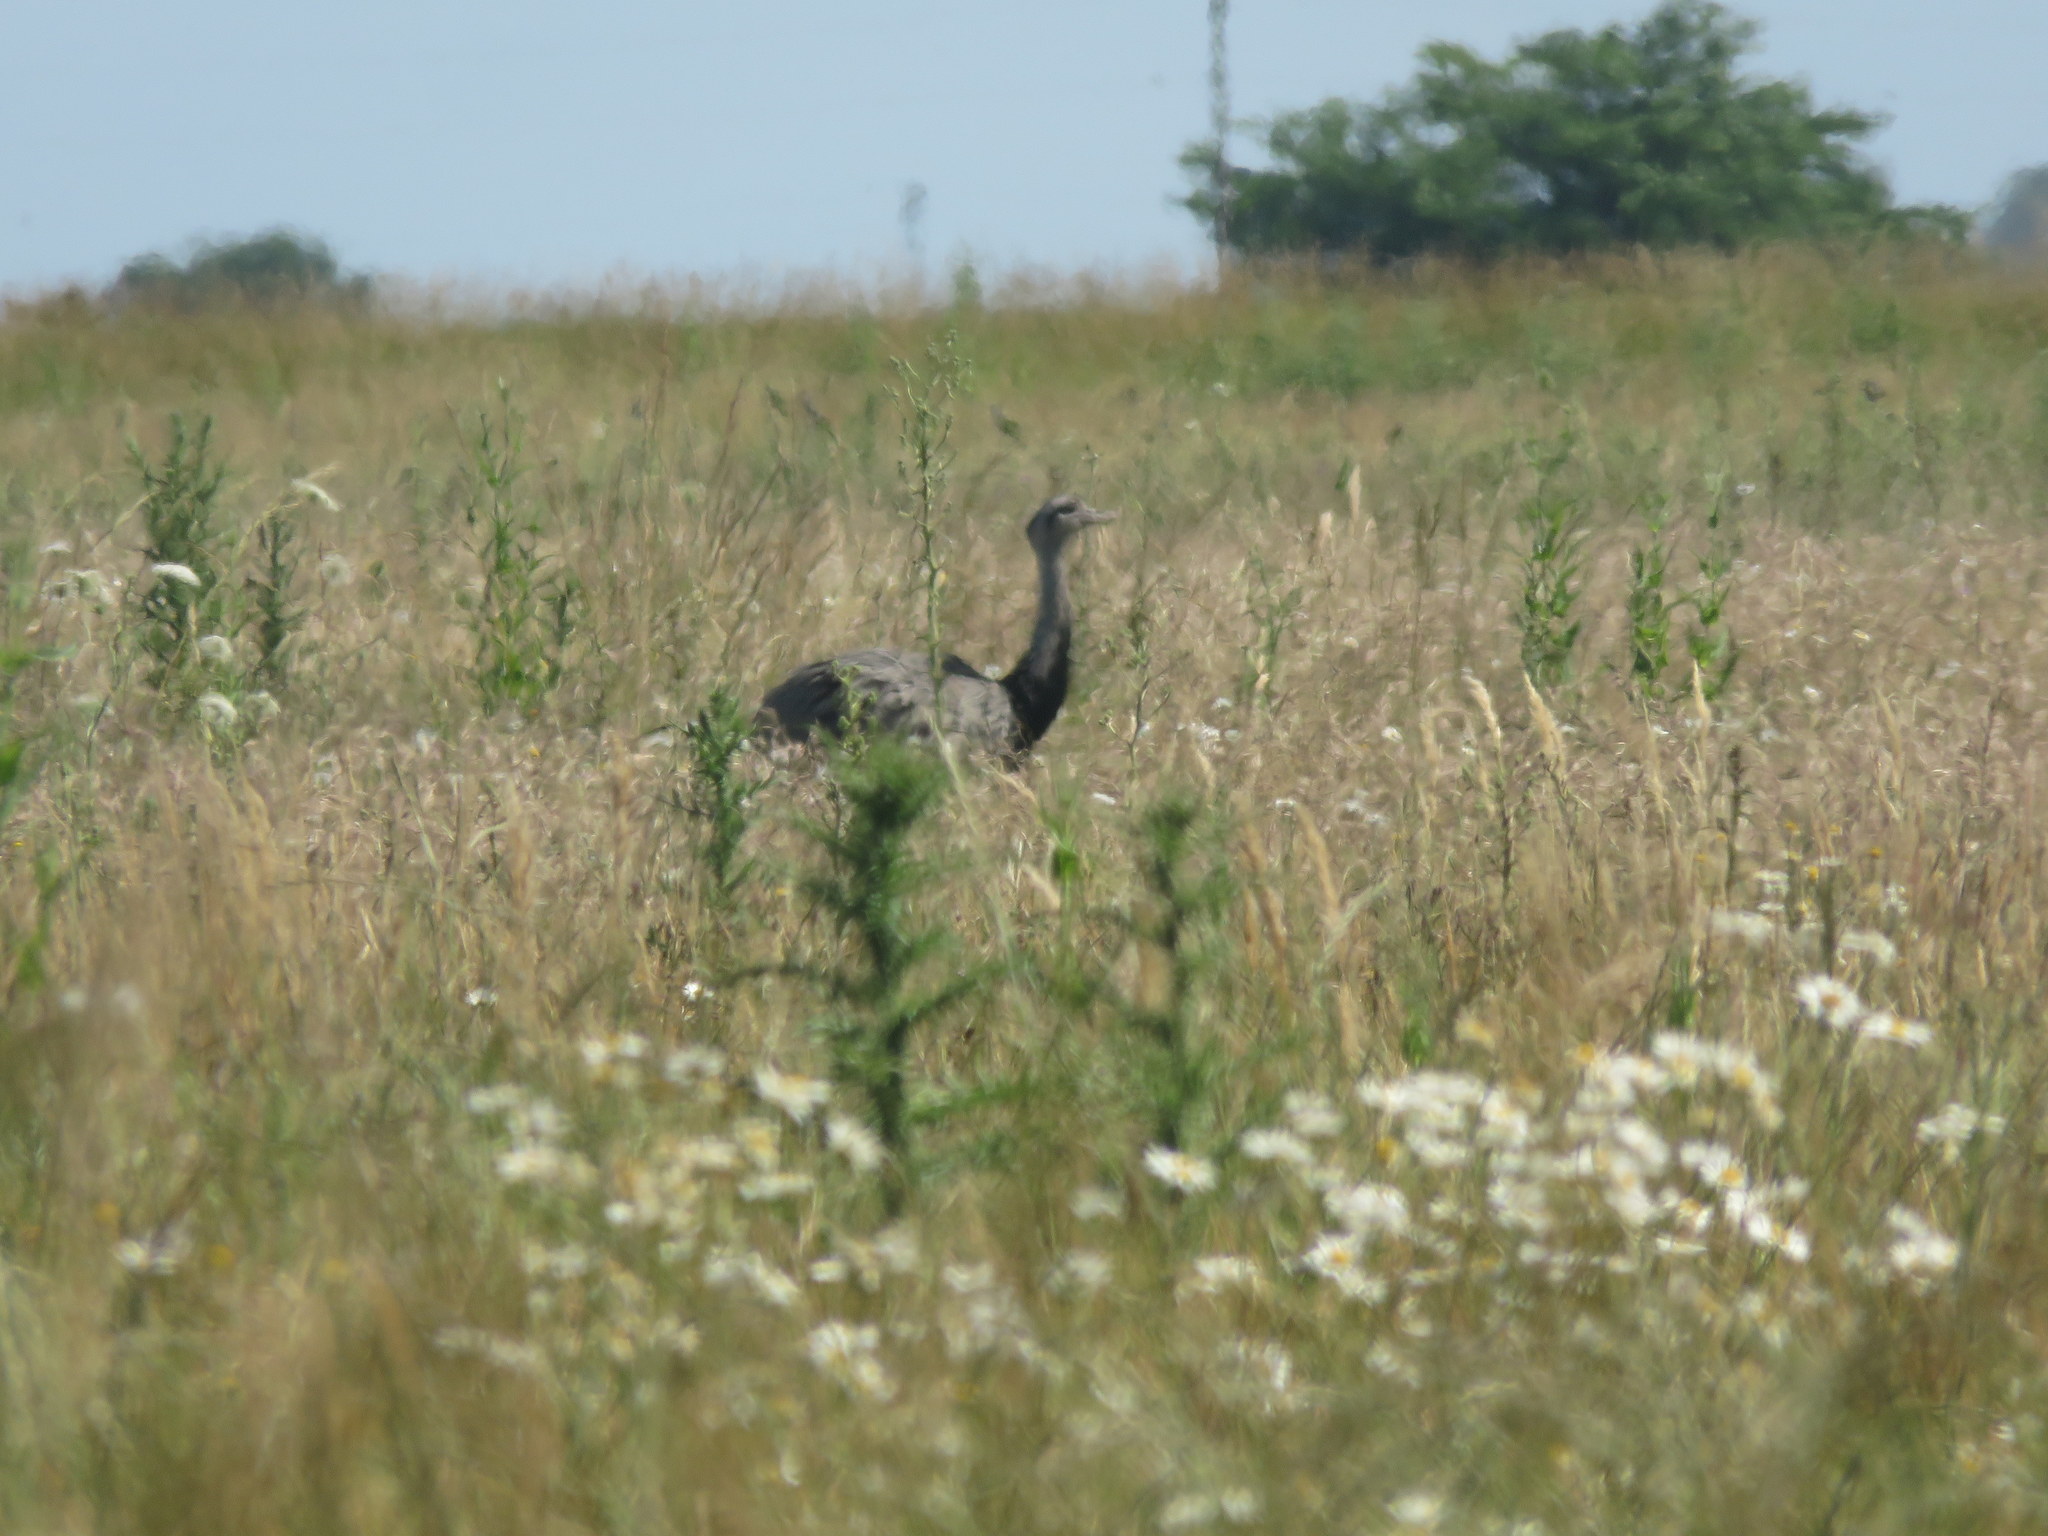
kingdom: Animalia
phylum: Chordata
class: Aves
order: Rheiformes
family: Rheidae
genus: Rhea
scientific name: Rhea americana
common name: Greater rhea
